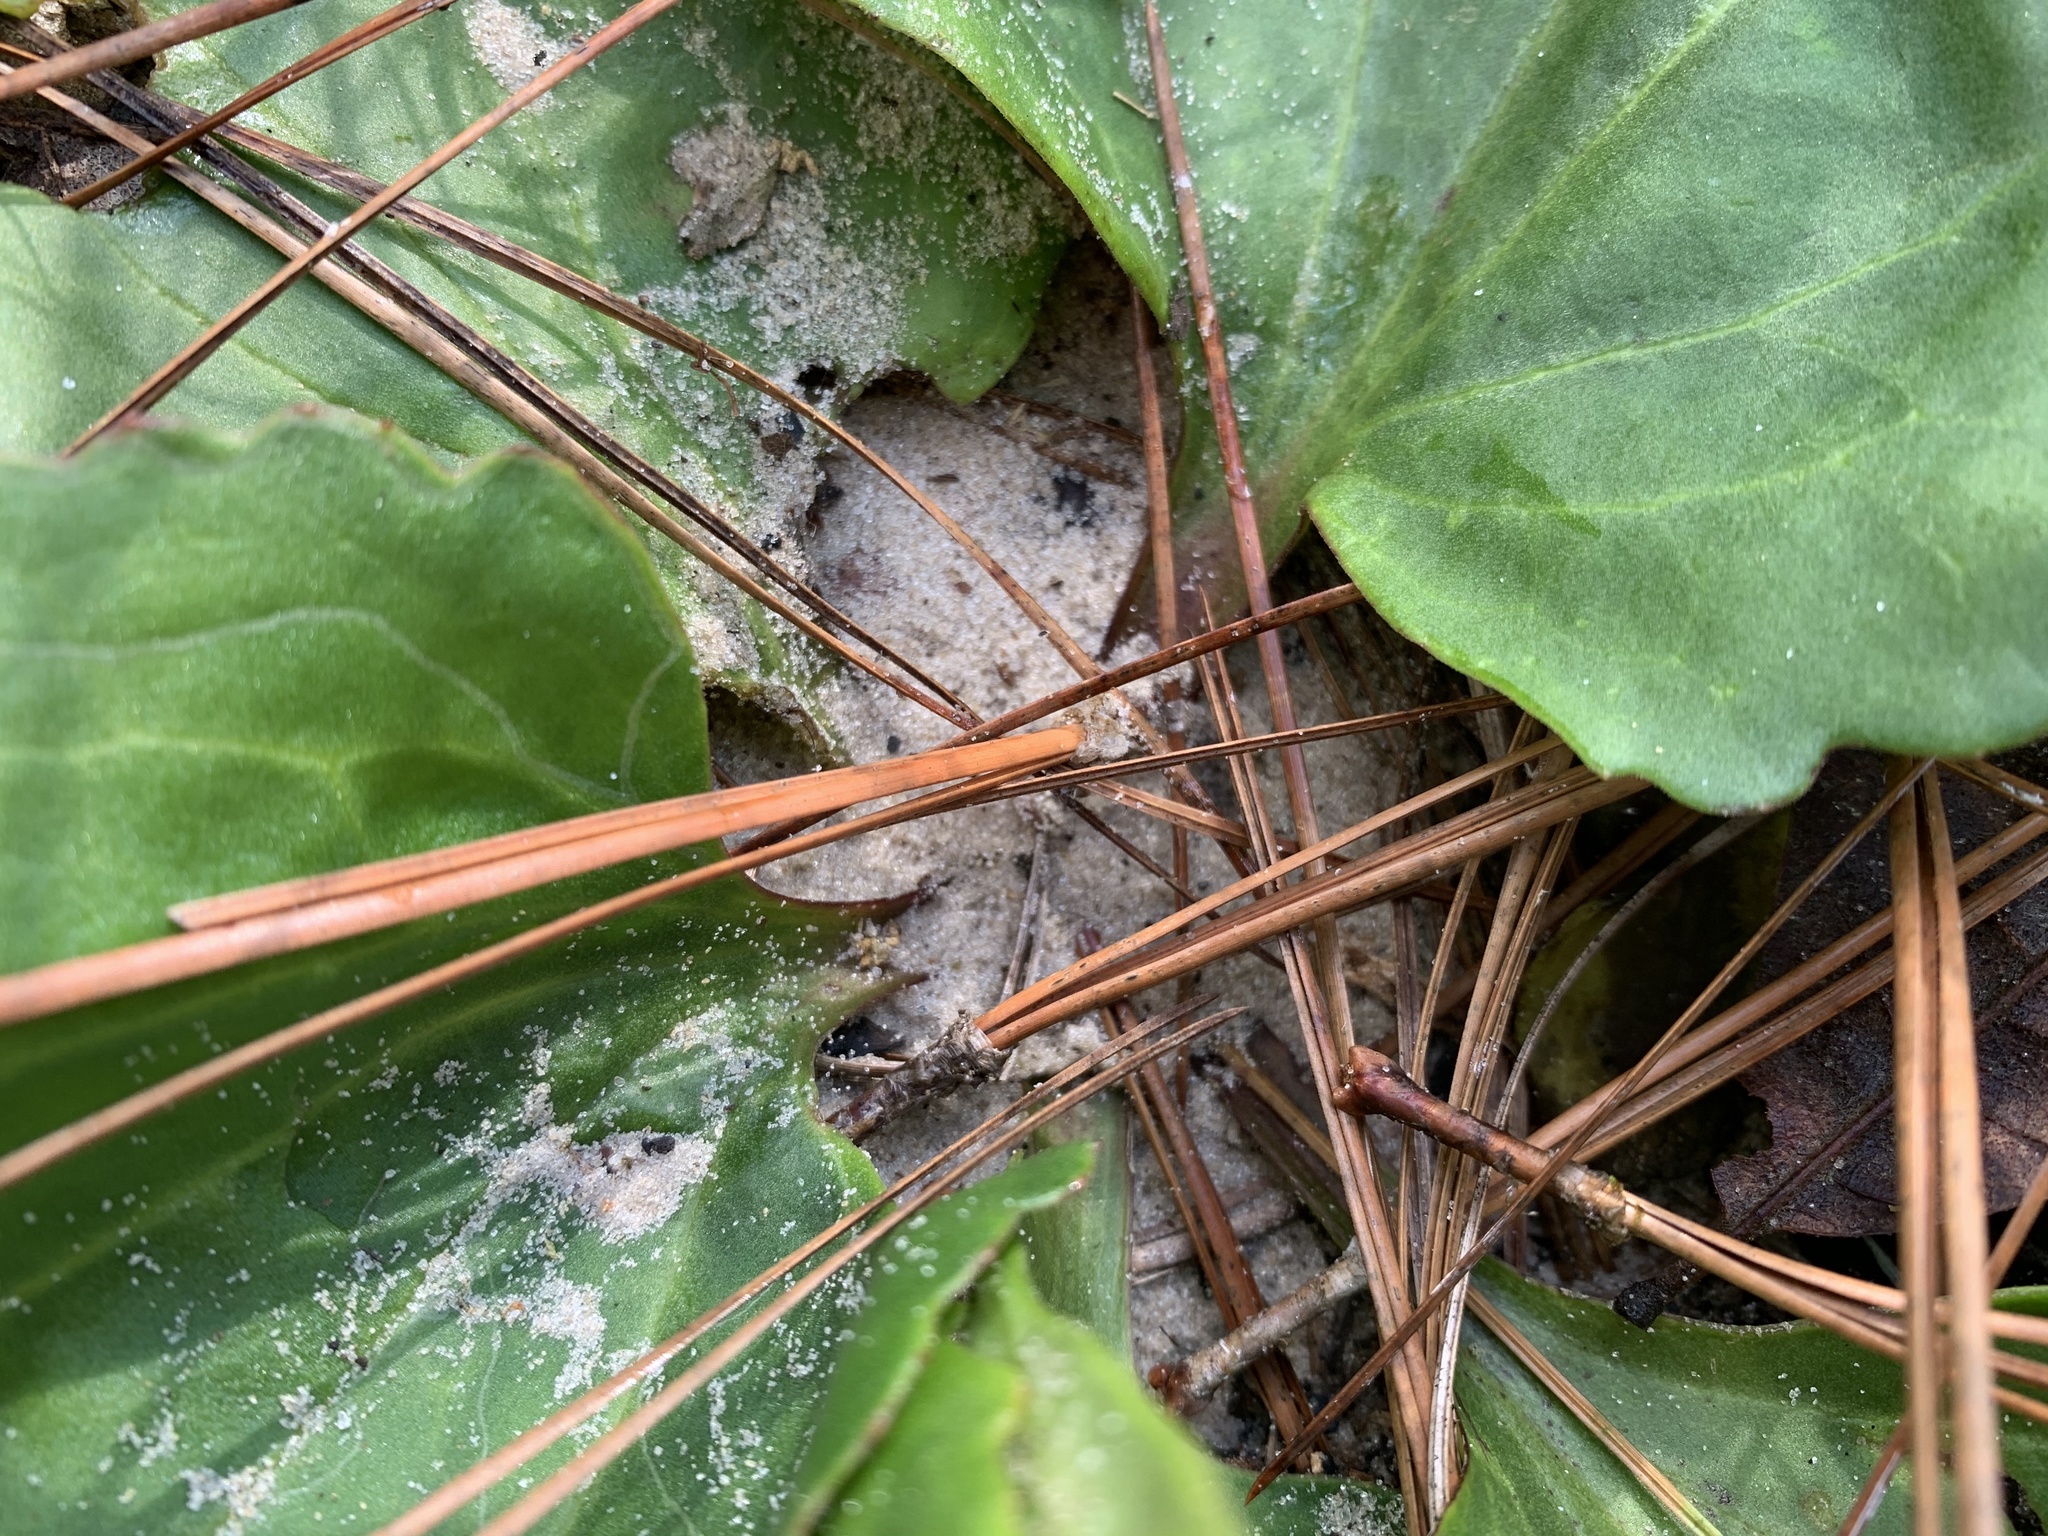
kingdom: Plantae
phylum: Tracheophyta
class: Magnoliopsida
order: Asterales
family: Asteraceae
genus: Arnoglossum
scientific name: Arnoglossum floridanum
